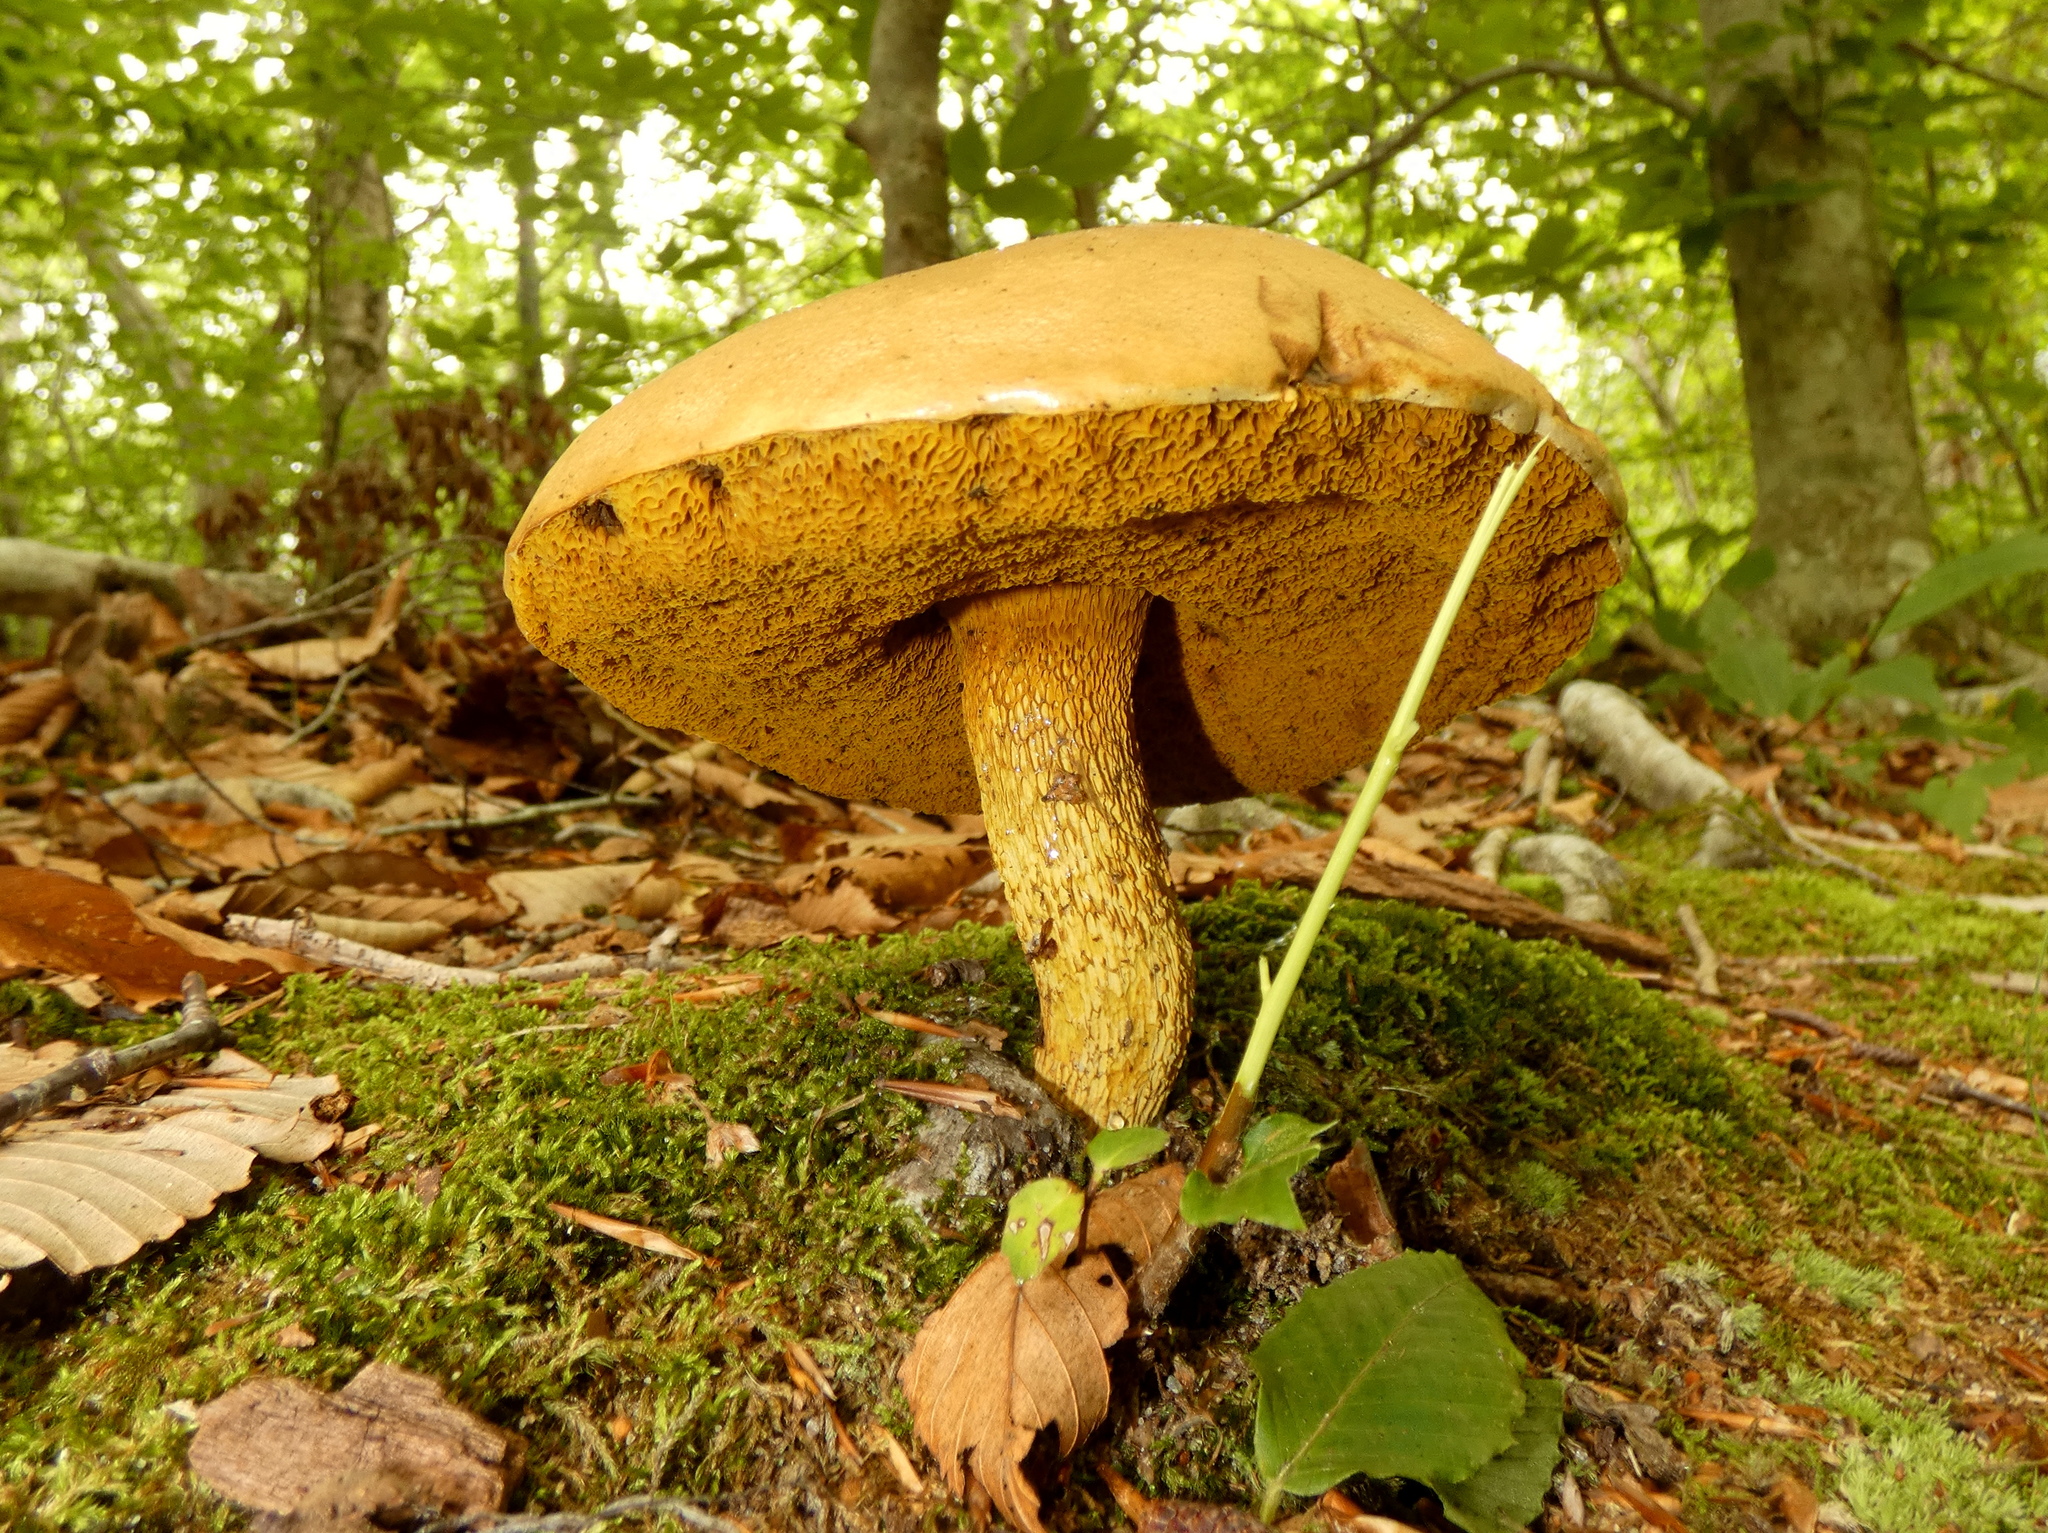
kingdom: Fungi
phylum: Basidiomycota
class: Agaricomycetes
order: Boletales
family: Boletaceae
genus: Retiboletus
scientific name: Retiboletus ornatipes
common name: Ornate-stalked bolete
